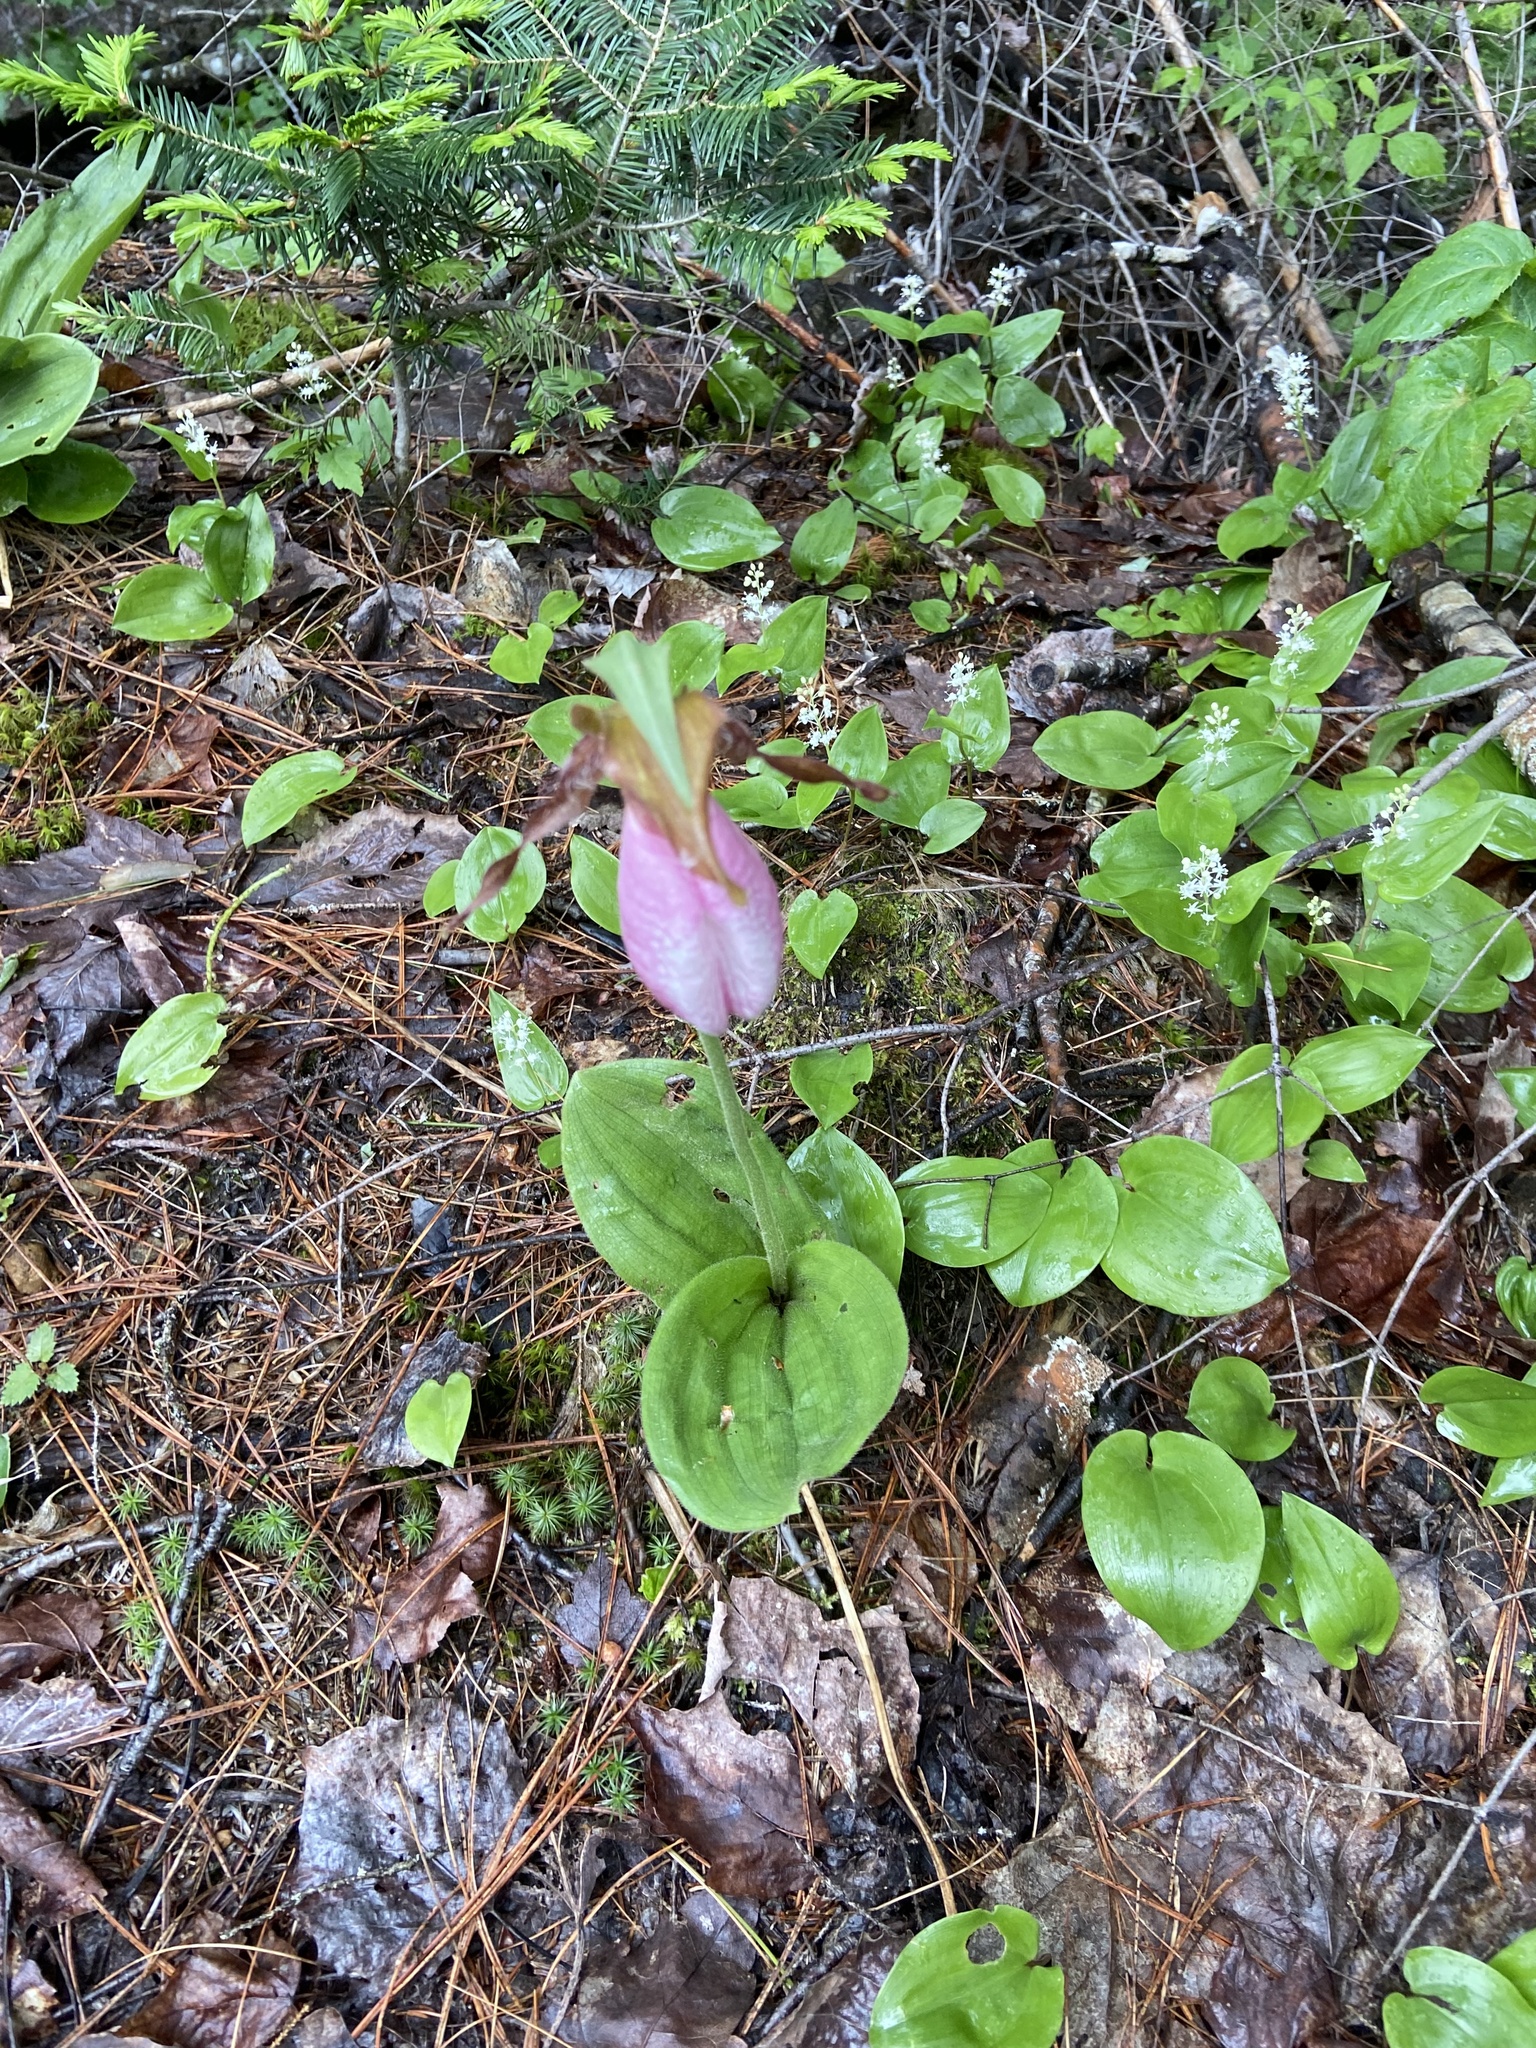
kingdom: Plantae
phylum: Tracheophyta
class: Liliopsida
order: Asparagales
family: Orchidaceae
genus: Cypripedium
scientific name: Cypripedium acaule
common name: Pink lady's-slipper
